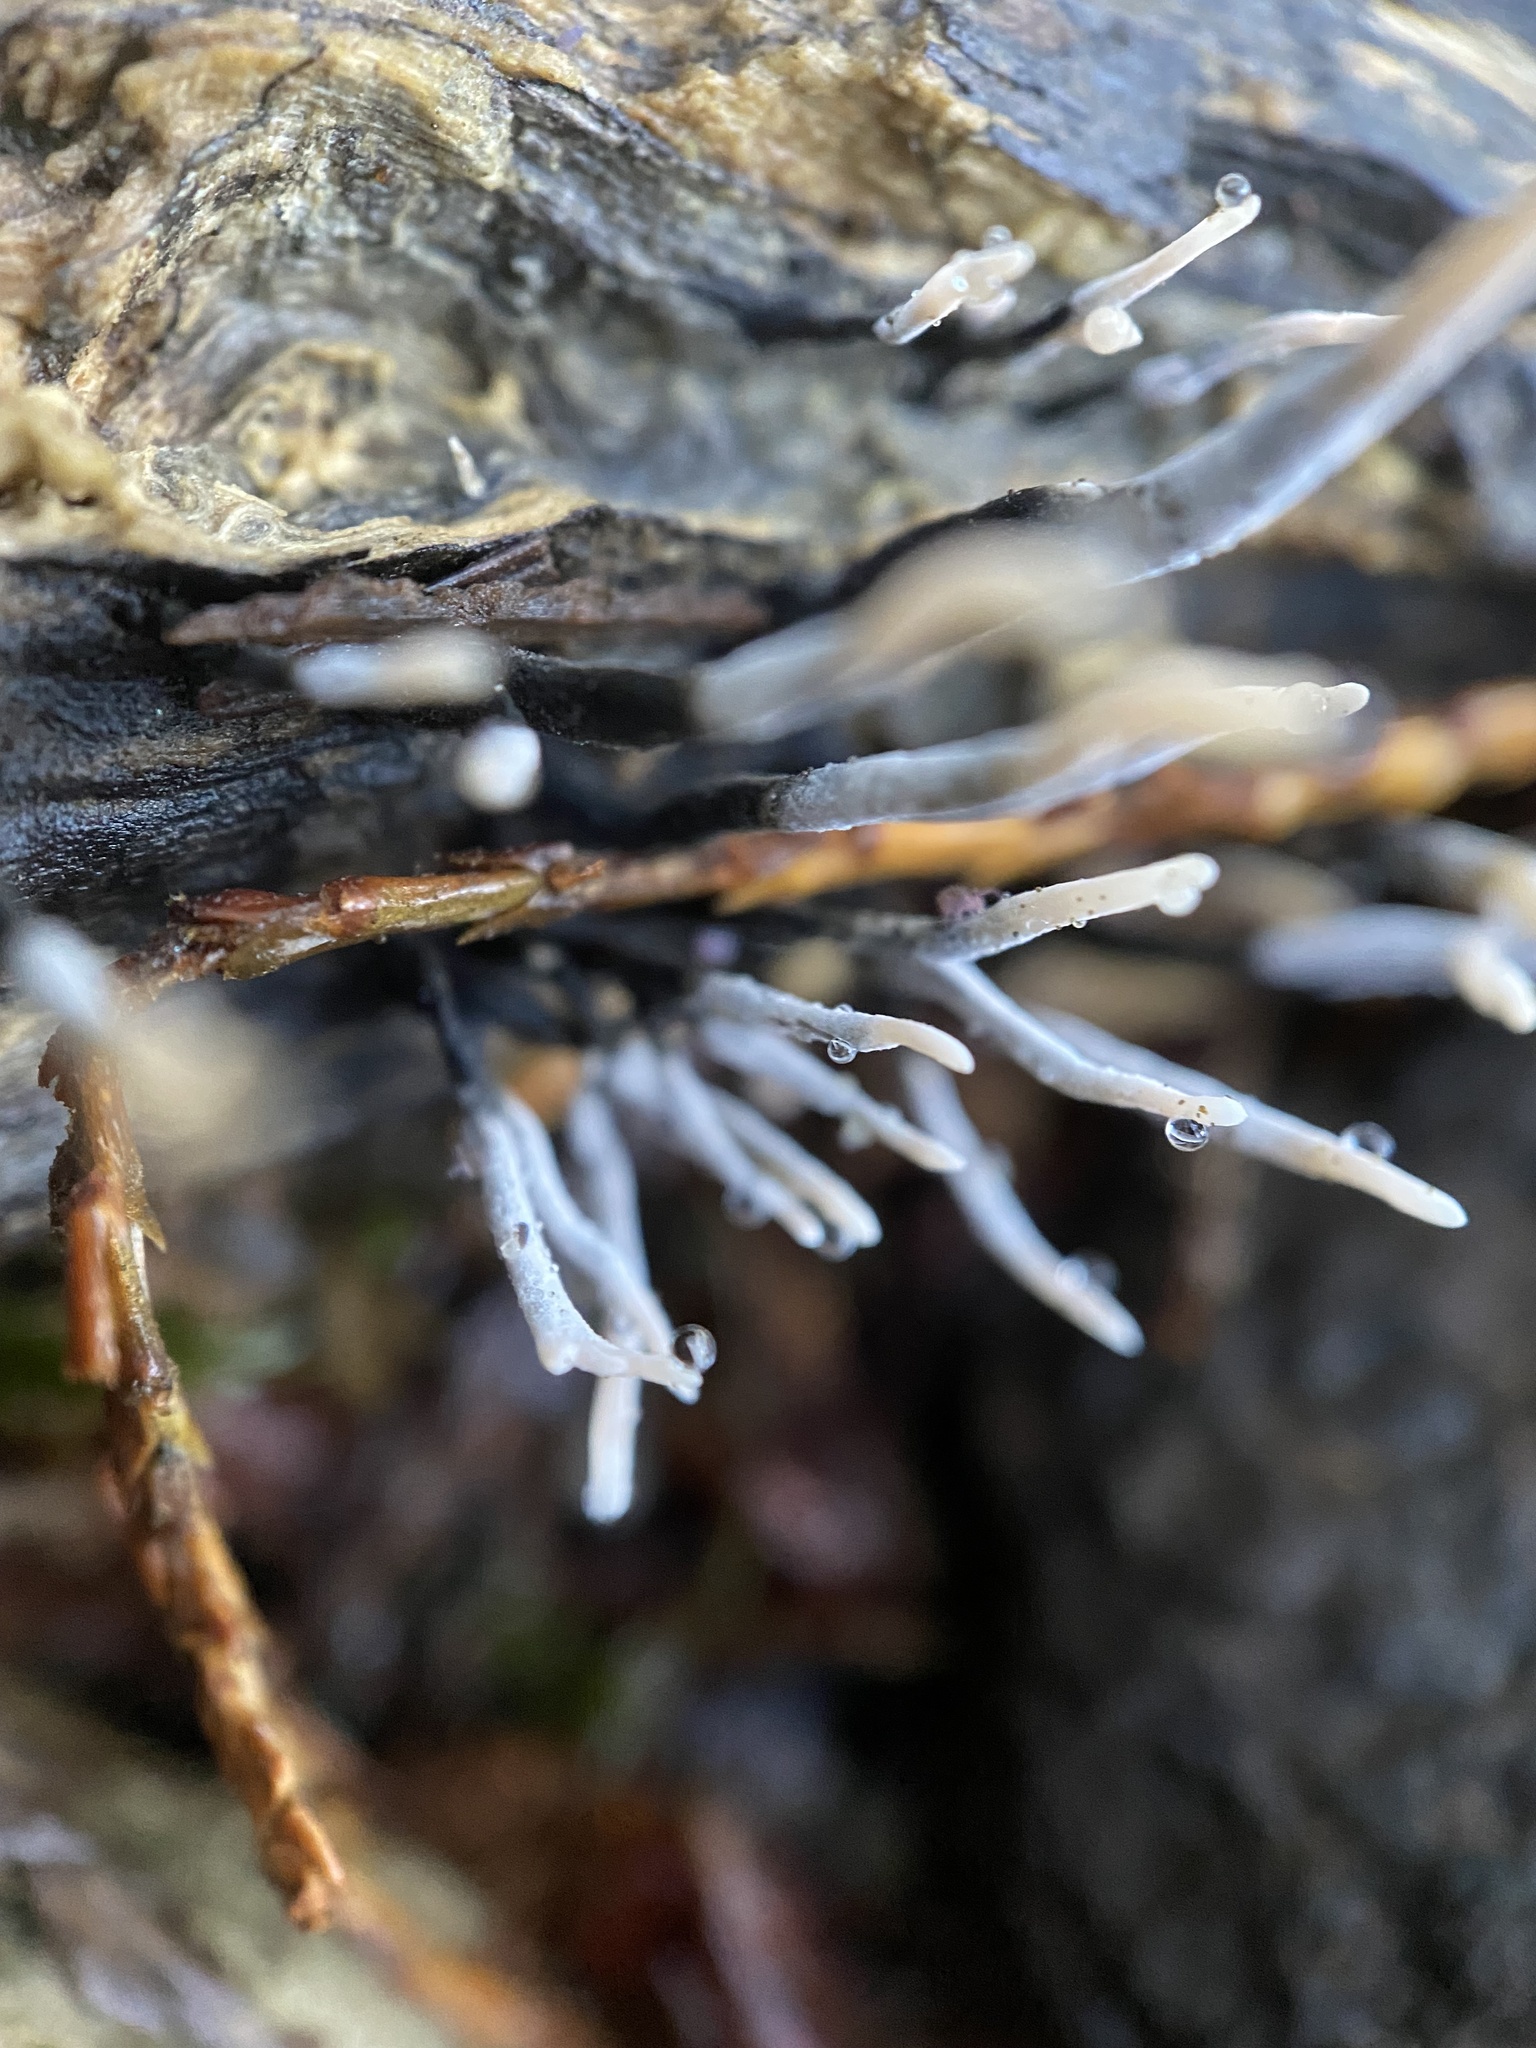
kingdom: Fungi
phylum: Ascomycota
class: Sordariomycetes
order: Xylariales
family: Xylariaceae
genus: Xylaria
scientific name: Xylaria hypoxylon
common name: Candle-snuff fungus
